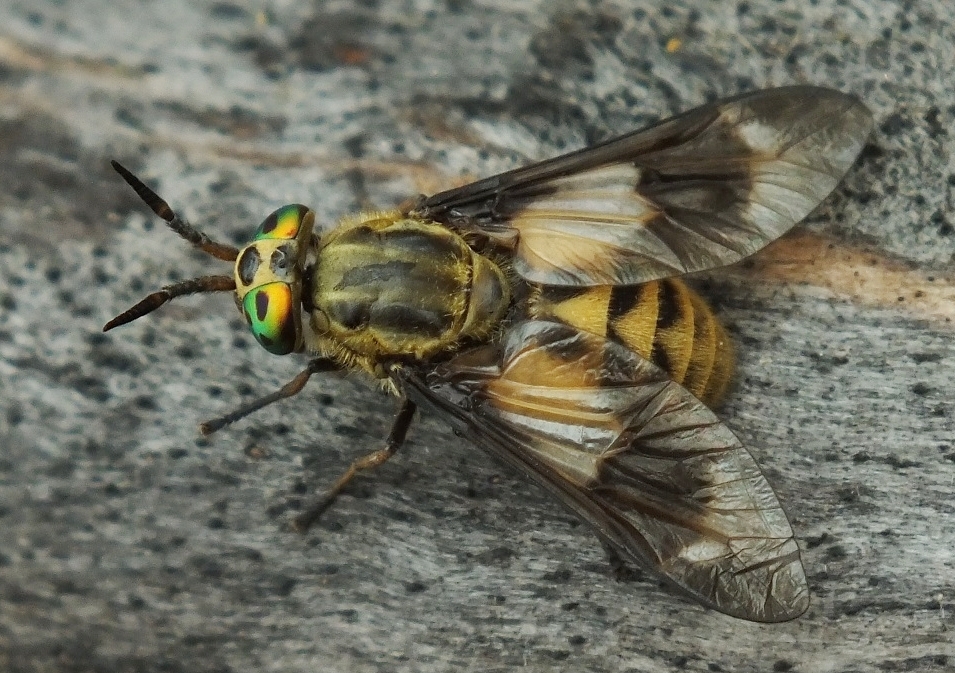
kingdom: Animalia
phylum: Arthropoda
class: Insecta
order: Diptera
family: Tabanidae
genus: Chrysops
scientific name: Chrysops relictus
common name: Twin-lobed deerfly
